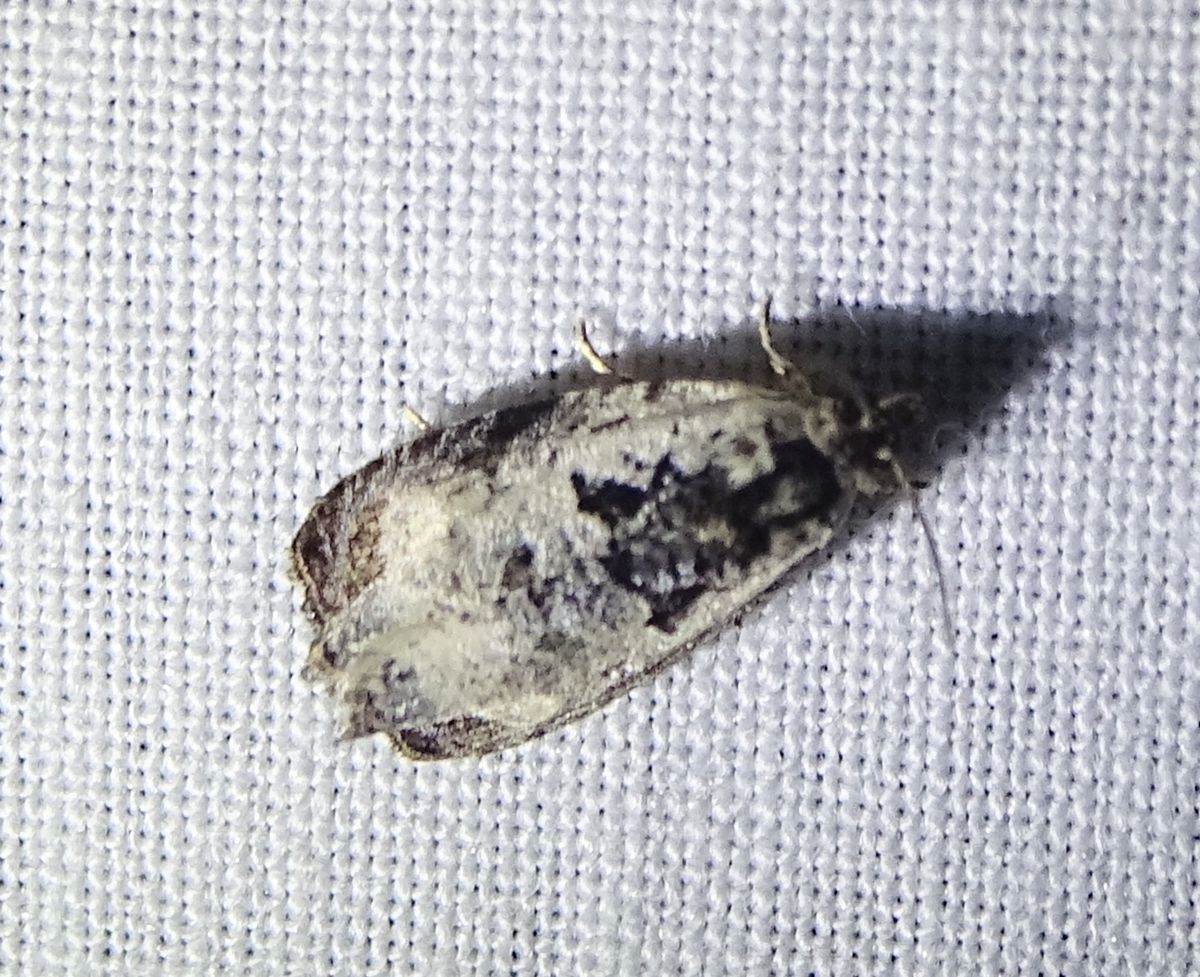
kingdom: Animalia
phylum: Arthropoda
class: Insecta
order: Lepidoptera
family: Tortricidae
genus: Olethreutes
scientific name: Olethreutes malana
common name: Malana leafroller moth
